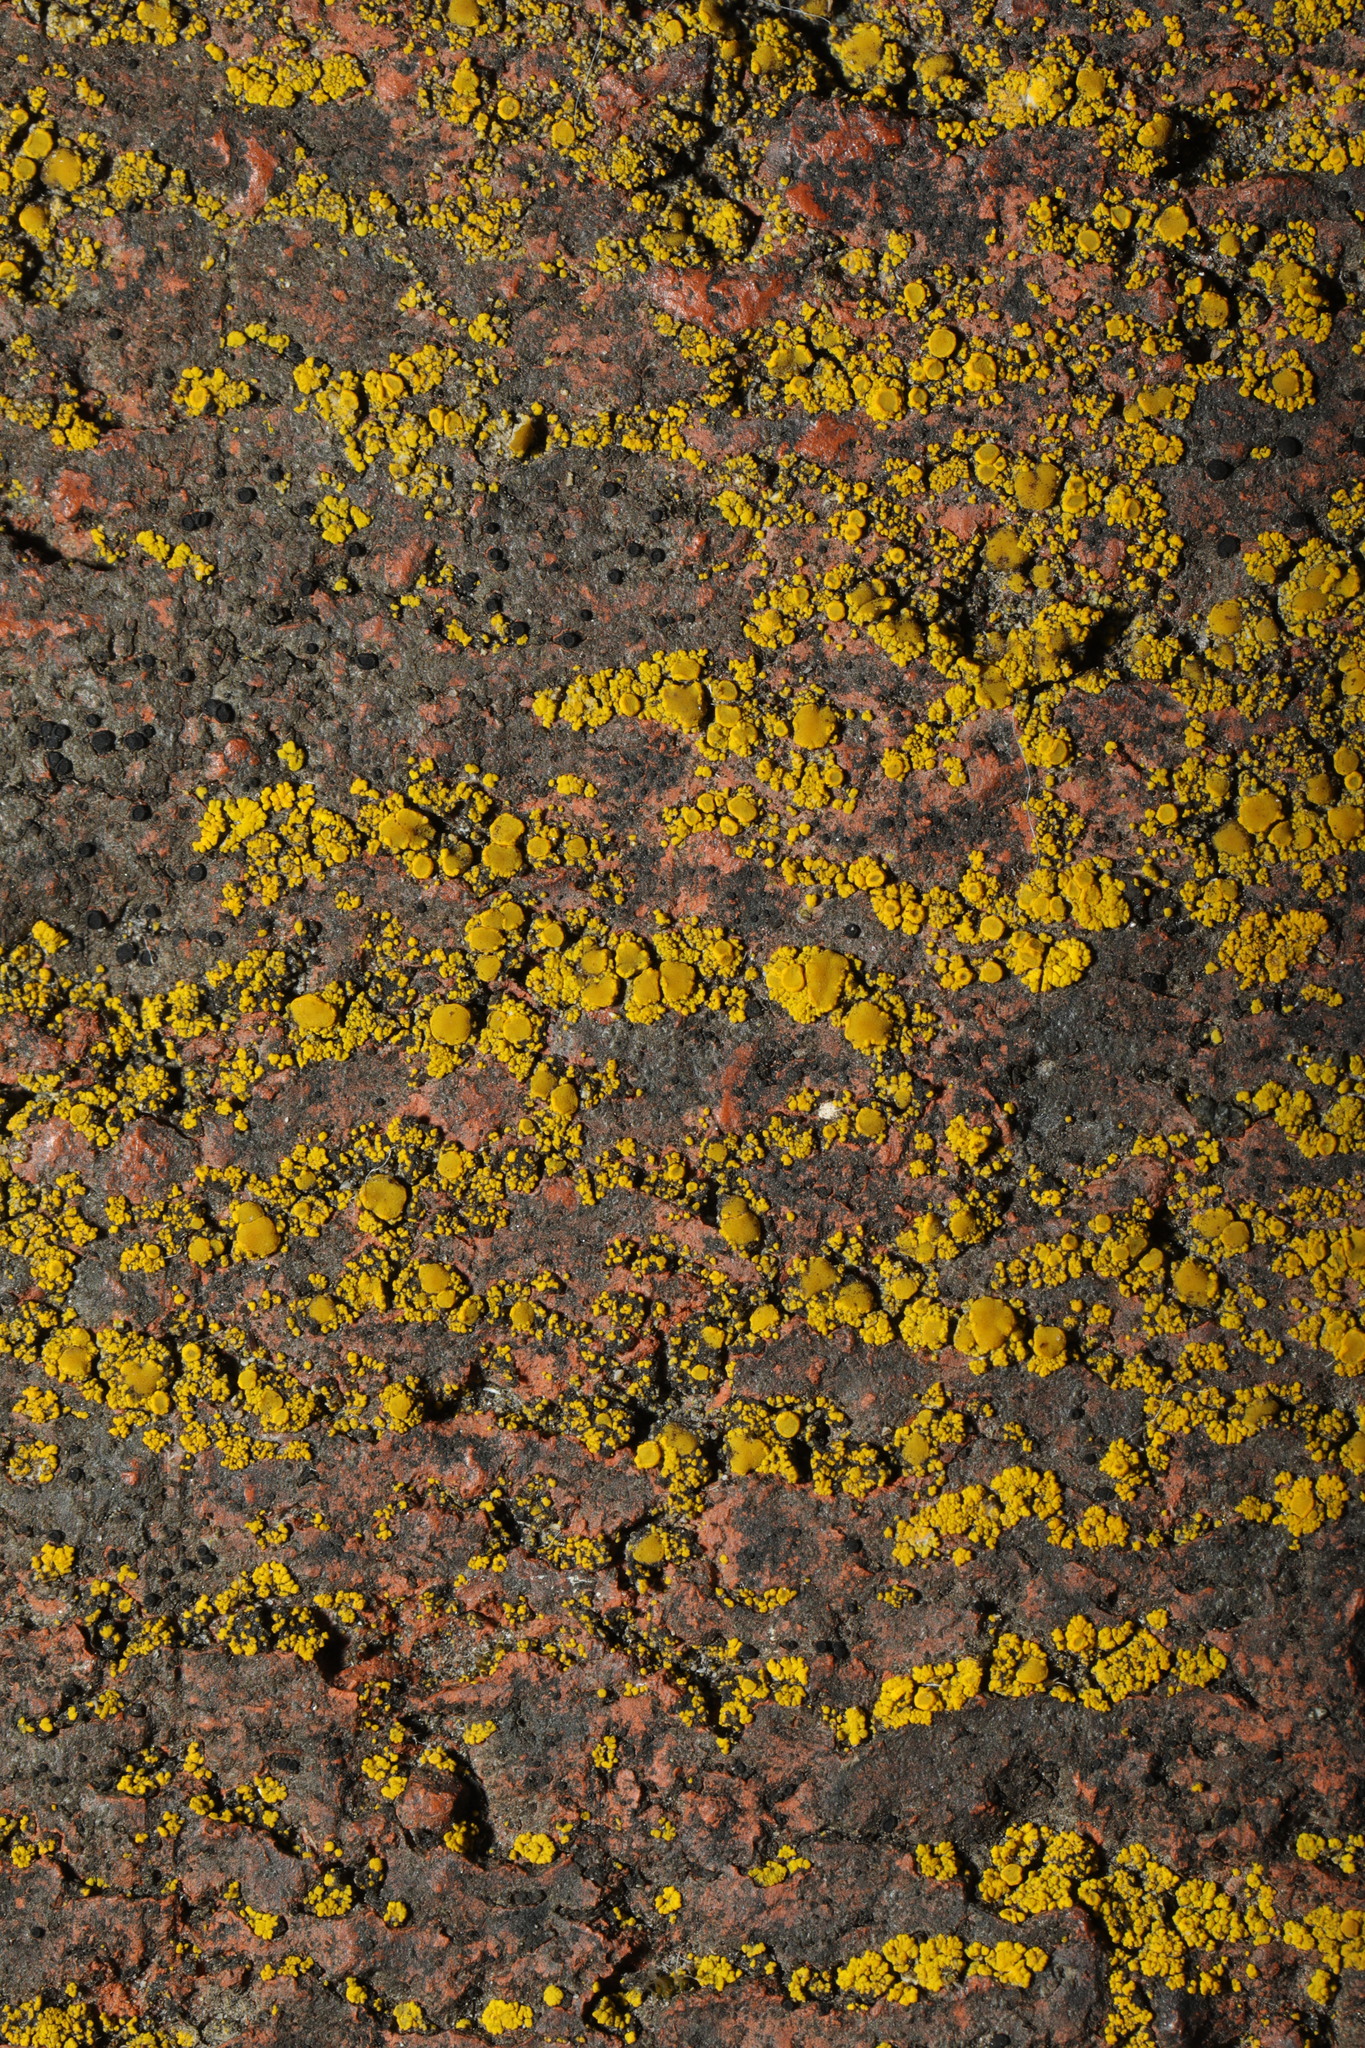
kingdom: Fungi
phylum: Ascomycota
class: Candelariomycetes
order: Candelariales
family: Candelariaceae
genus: Candelariella
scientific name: Candelariella vitellina
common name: Common goldspeck
